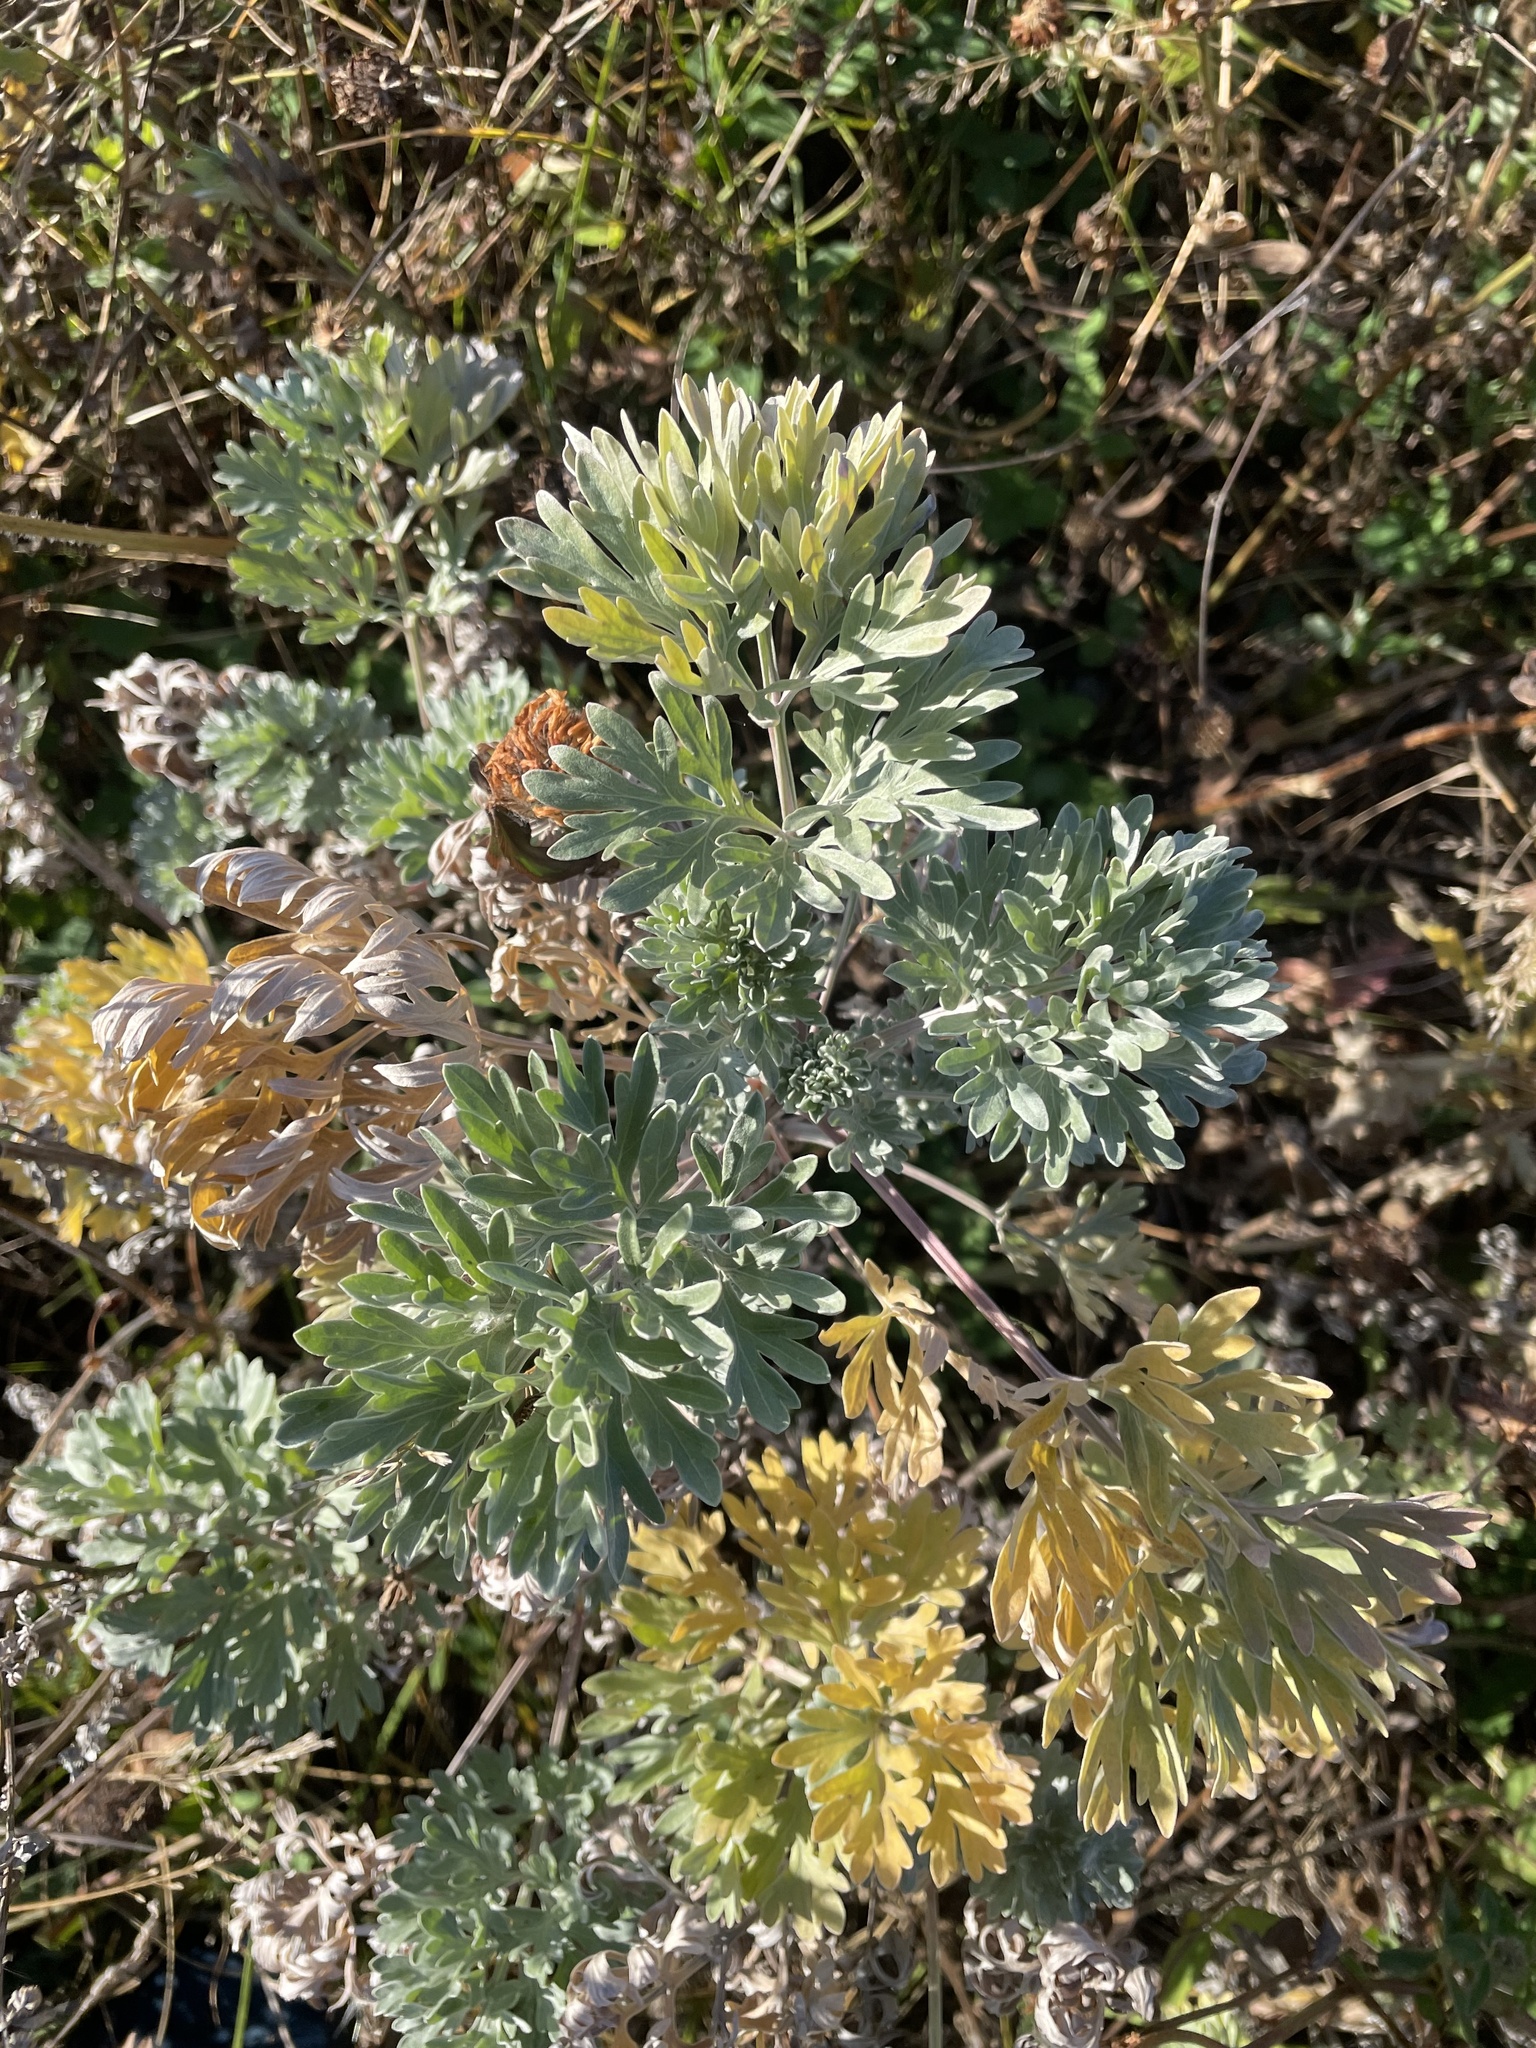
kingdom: Plantae
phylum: Tracheophyta
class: Magnoliopsida
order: Asterales
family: Asteraceae
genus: Artemisia
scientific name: Artemisia absinthium
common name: Wormwood
